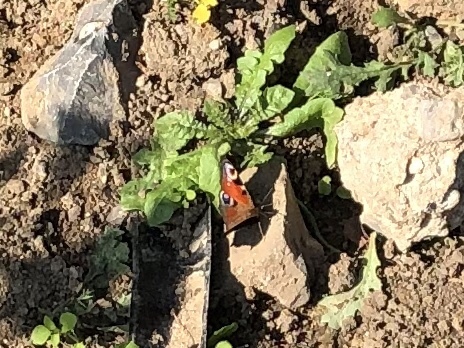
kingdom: Animalia
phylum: Arthropoda
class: Insecta
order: Lepidoptera
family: Nymphalidae
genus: Aglais
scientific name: Aglais io
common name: Peacock
